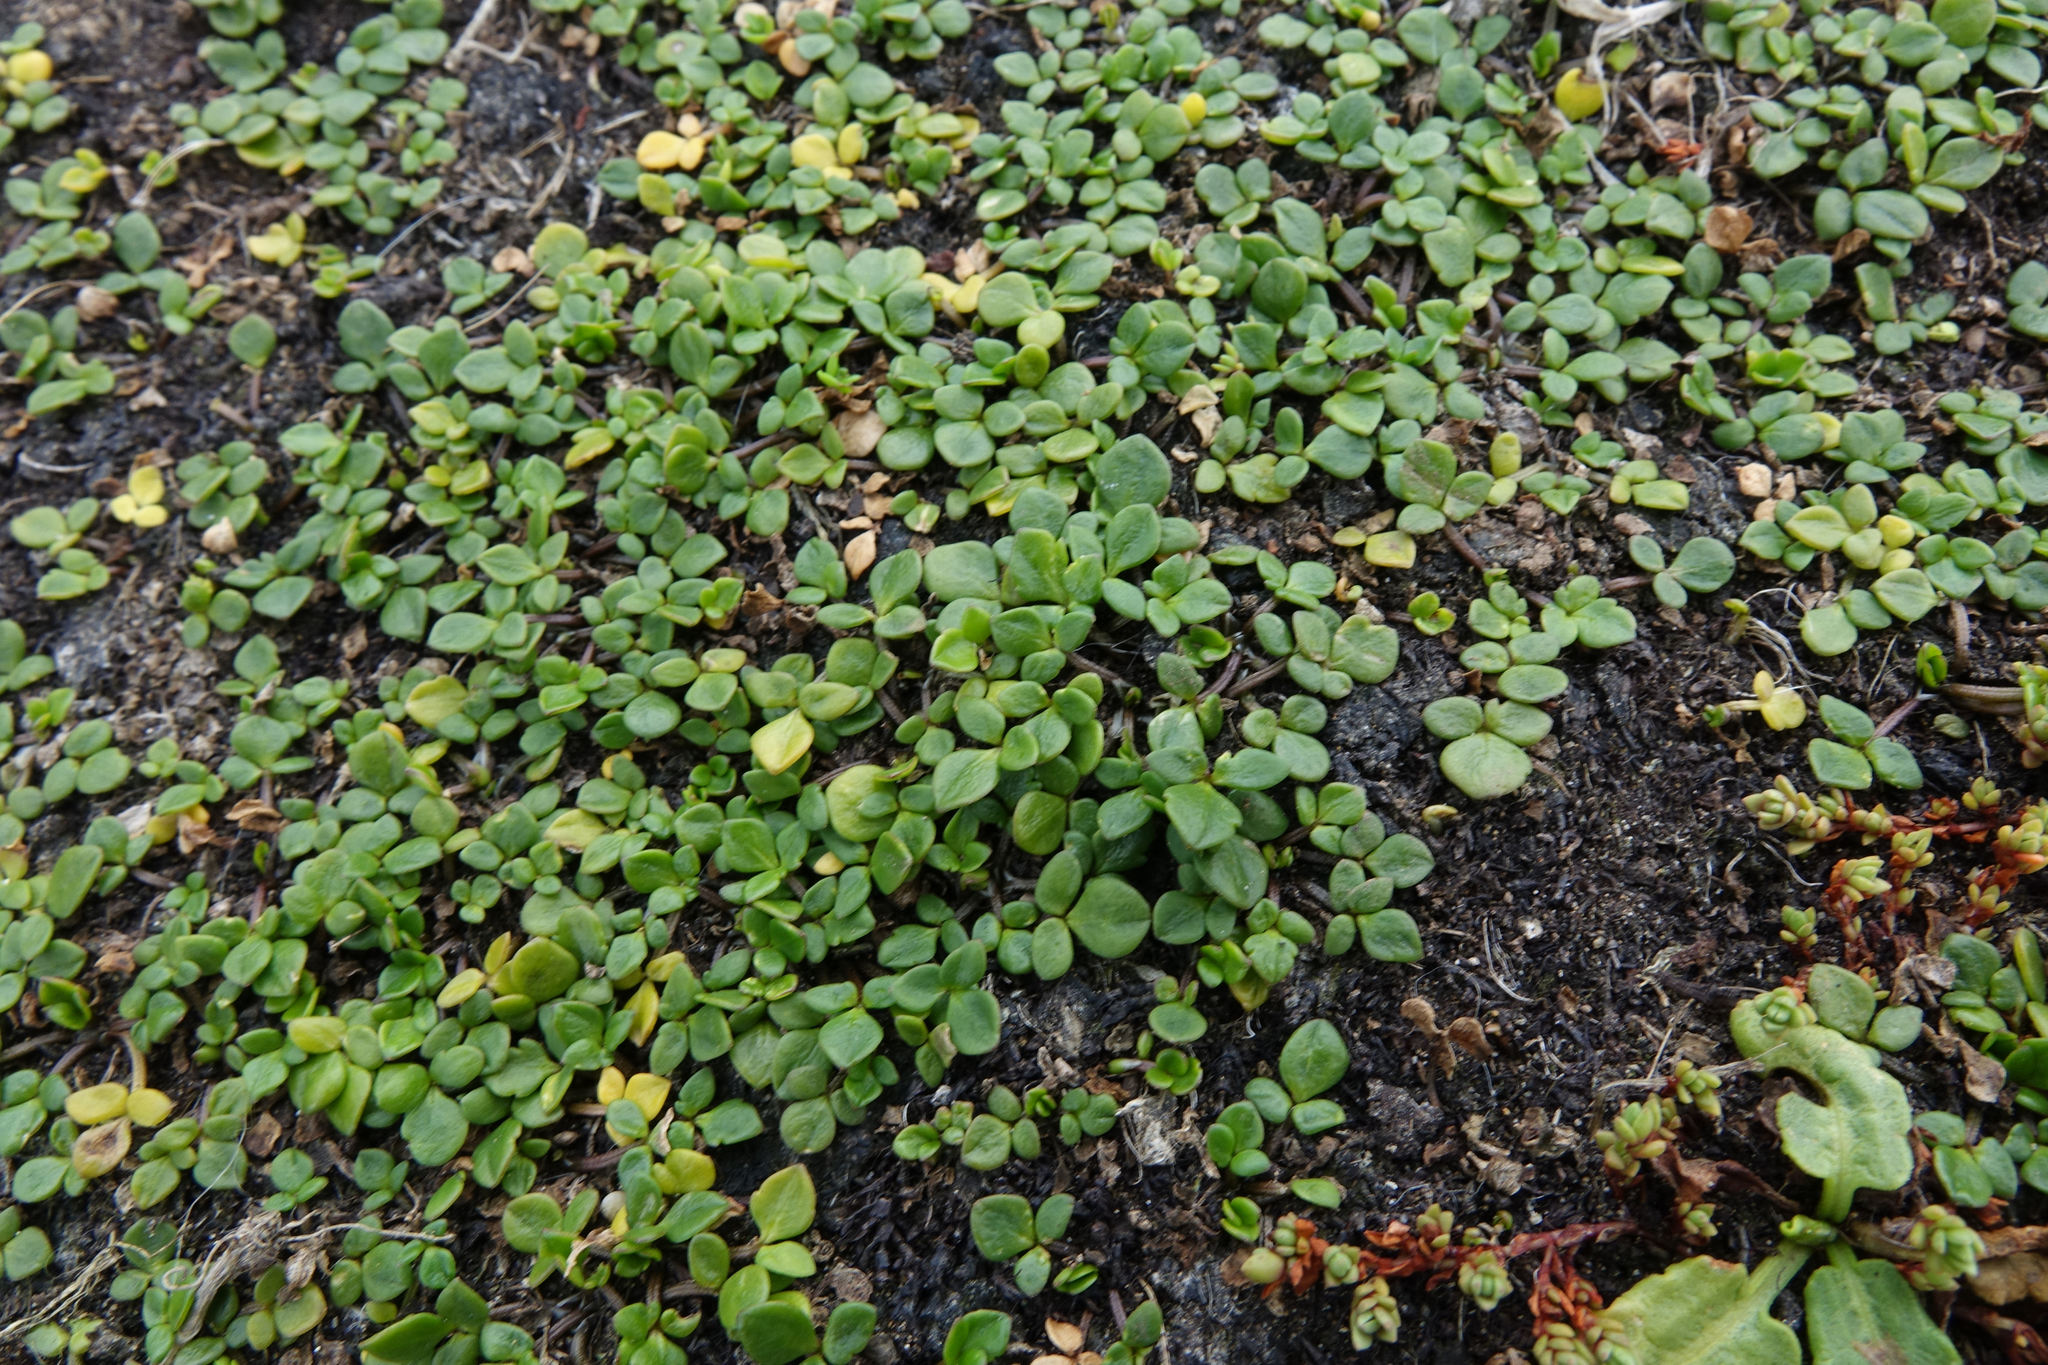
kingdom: Plantae
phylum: Tracheophyta
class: Magnoliopsida
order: Ranunculales
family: Ranunculaceae
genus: Ranunculus
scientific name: Ranunculus acaulis
